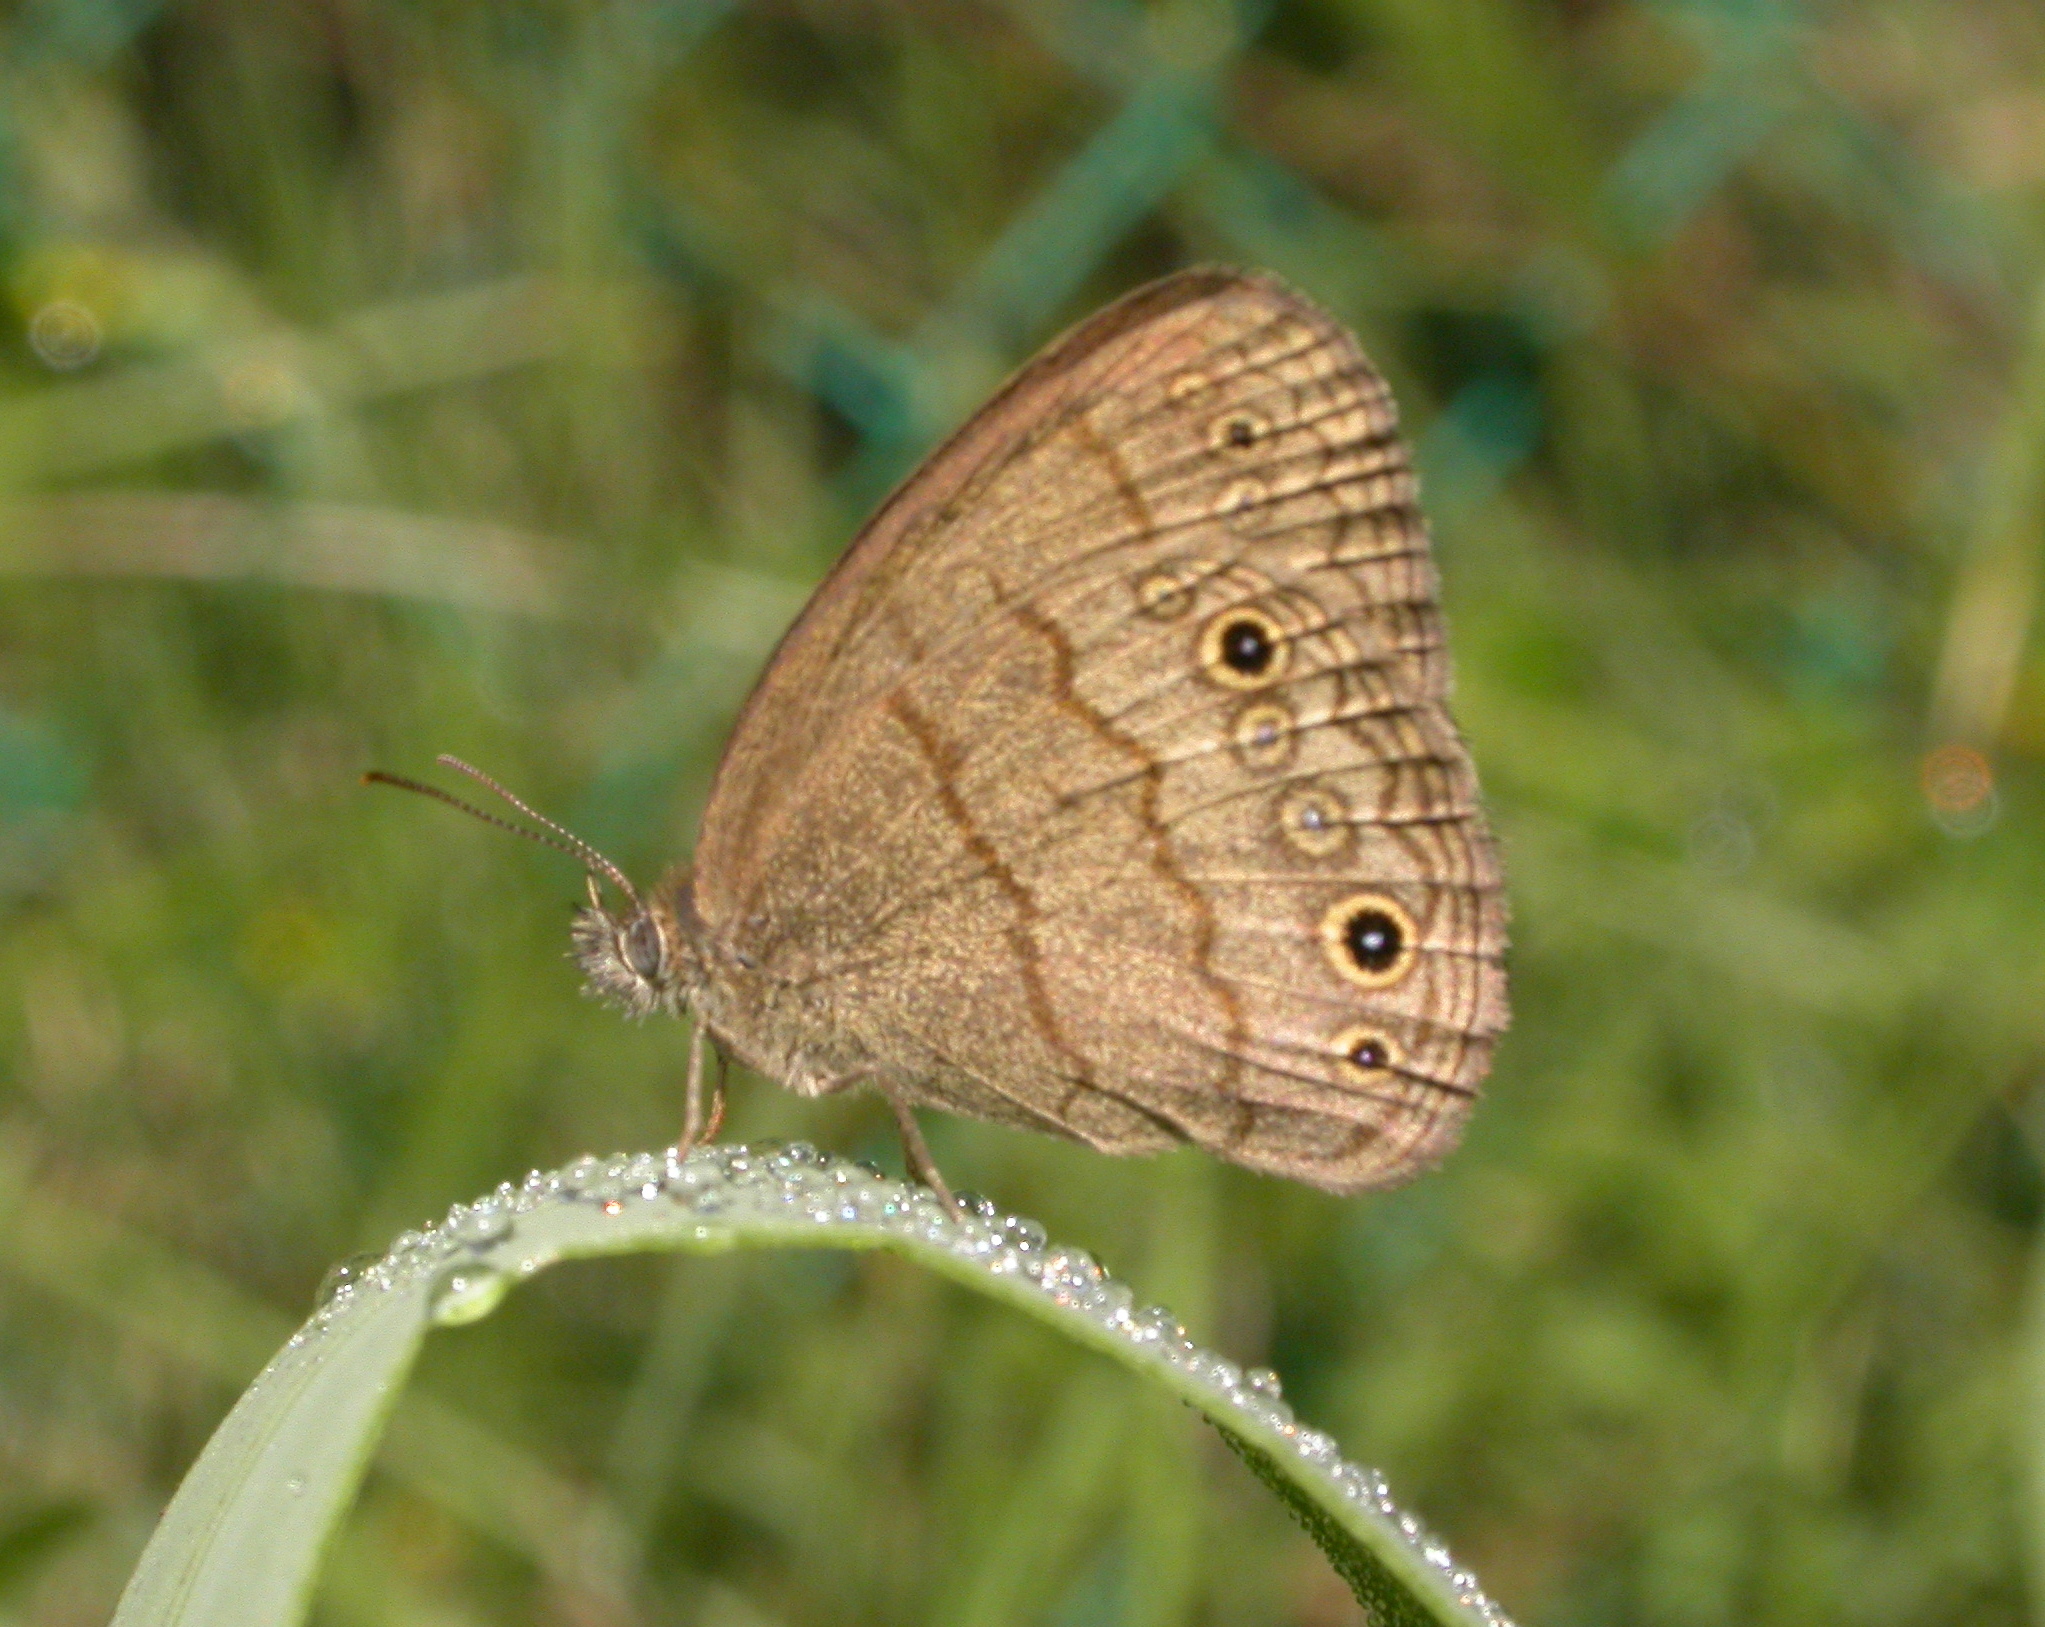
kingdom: Animalia
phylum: Arthropoda
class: Insecta
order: Lepidoptera
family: Nymphalidae
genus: Hermeuptychia
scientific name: Hermeuptychia hermybius
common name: South texas satyr
